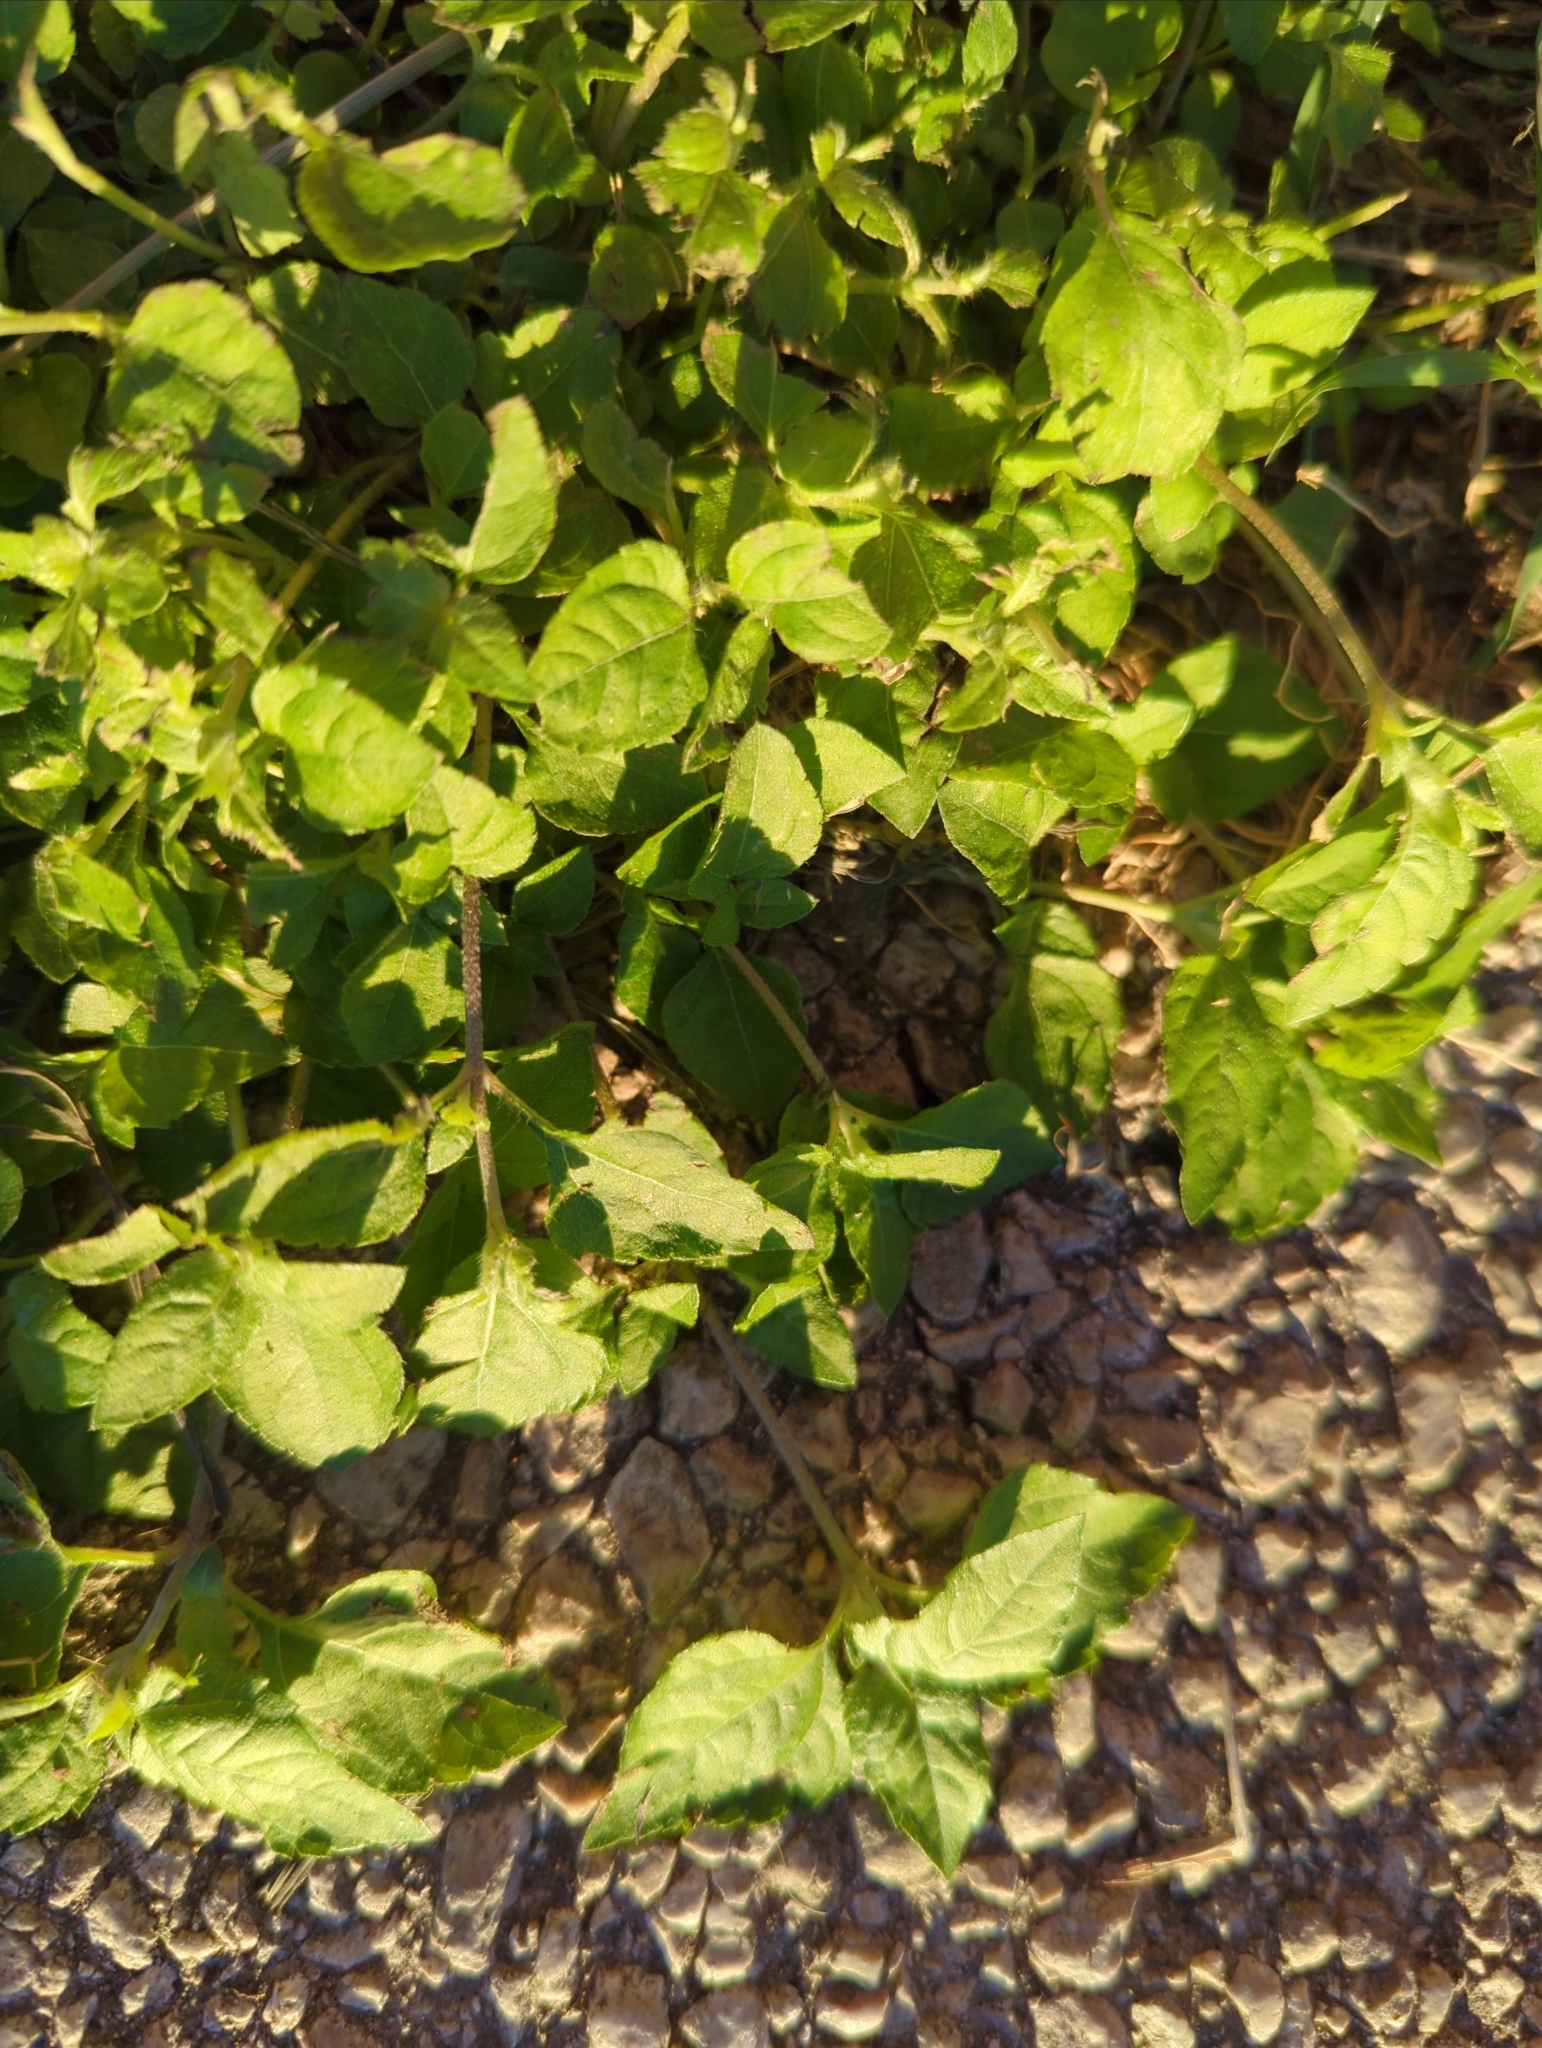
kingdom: Plantae
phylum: Tracheophyta
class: Magnoliopsida
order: Asterales
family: Asteraceae
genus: Calyptocarpus
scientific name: Calyptocarpus vialis
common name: Straggler daisy
